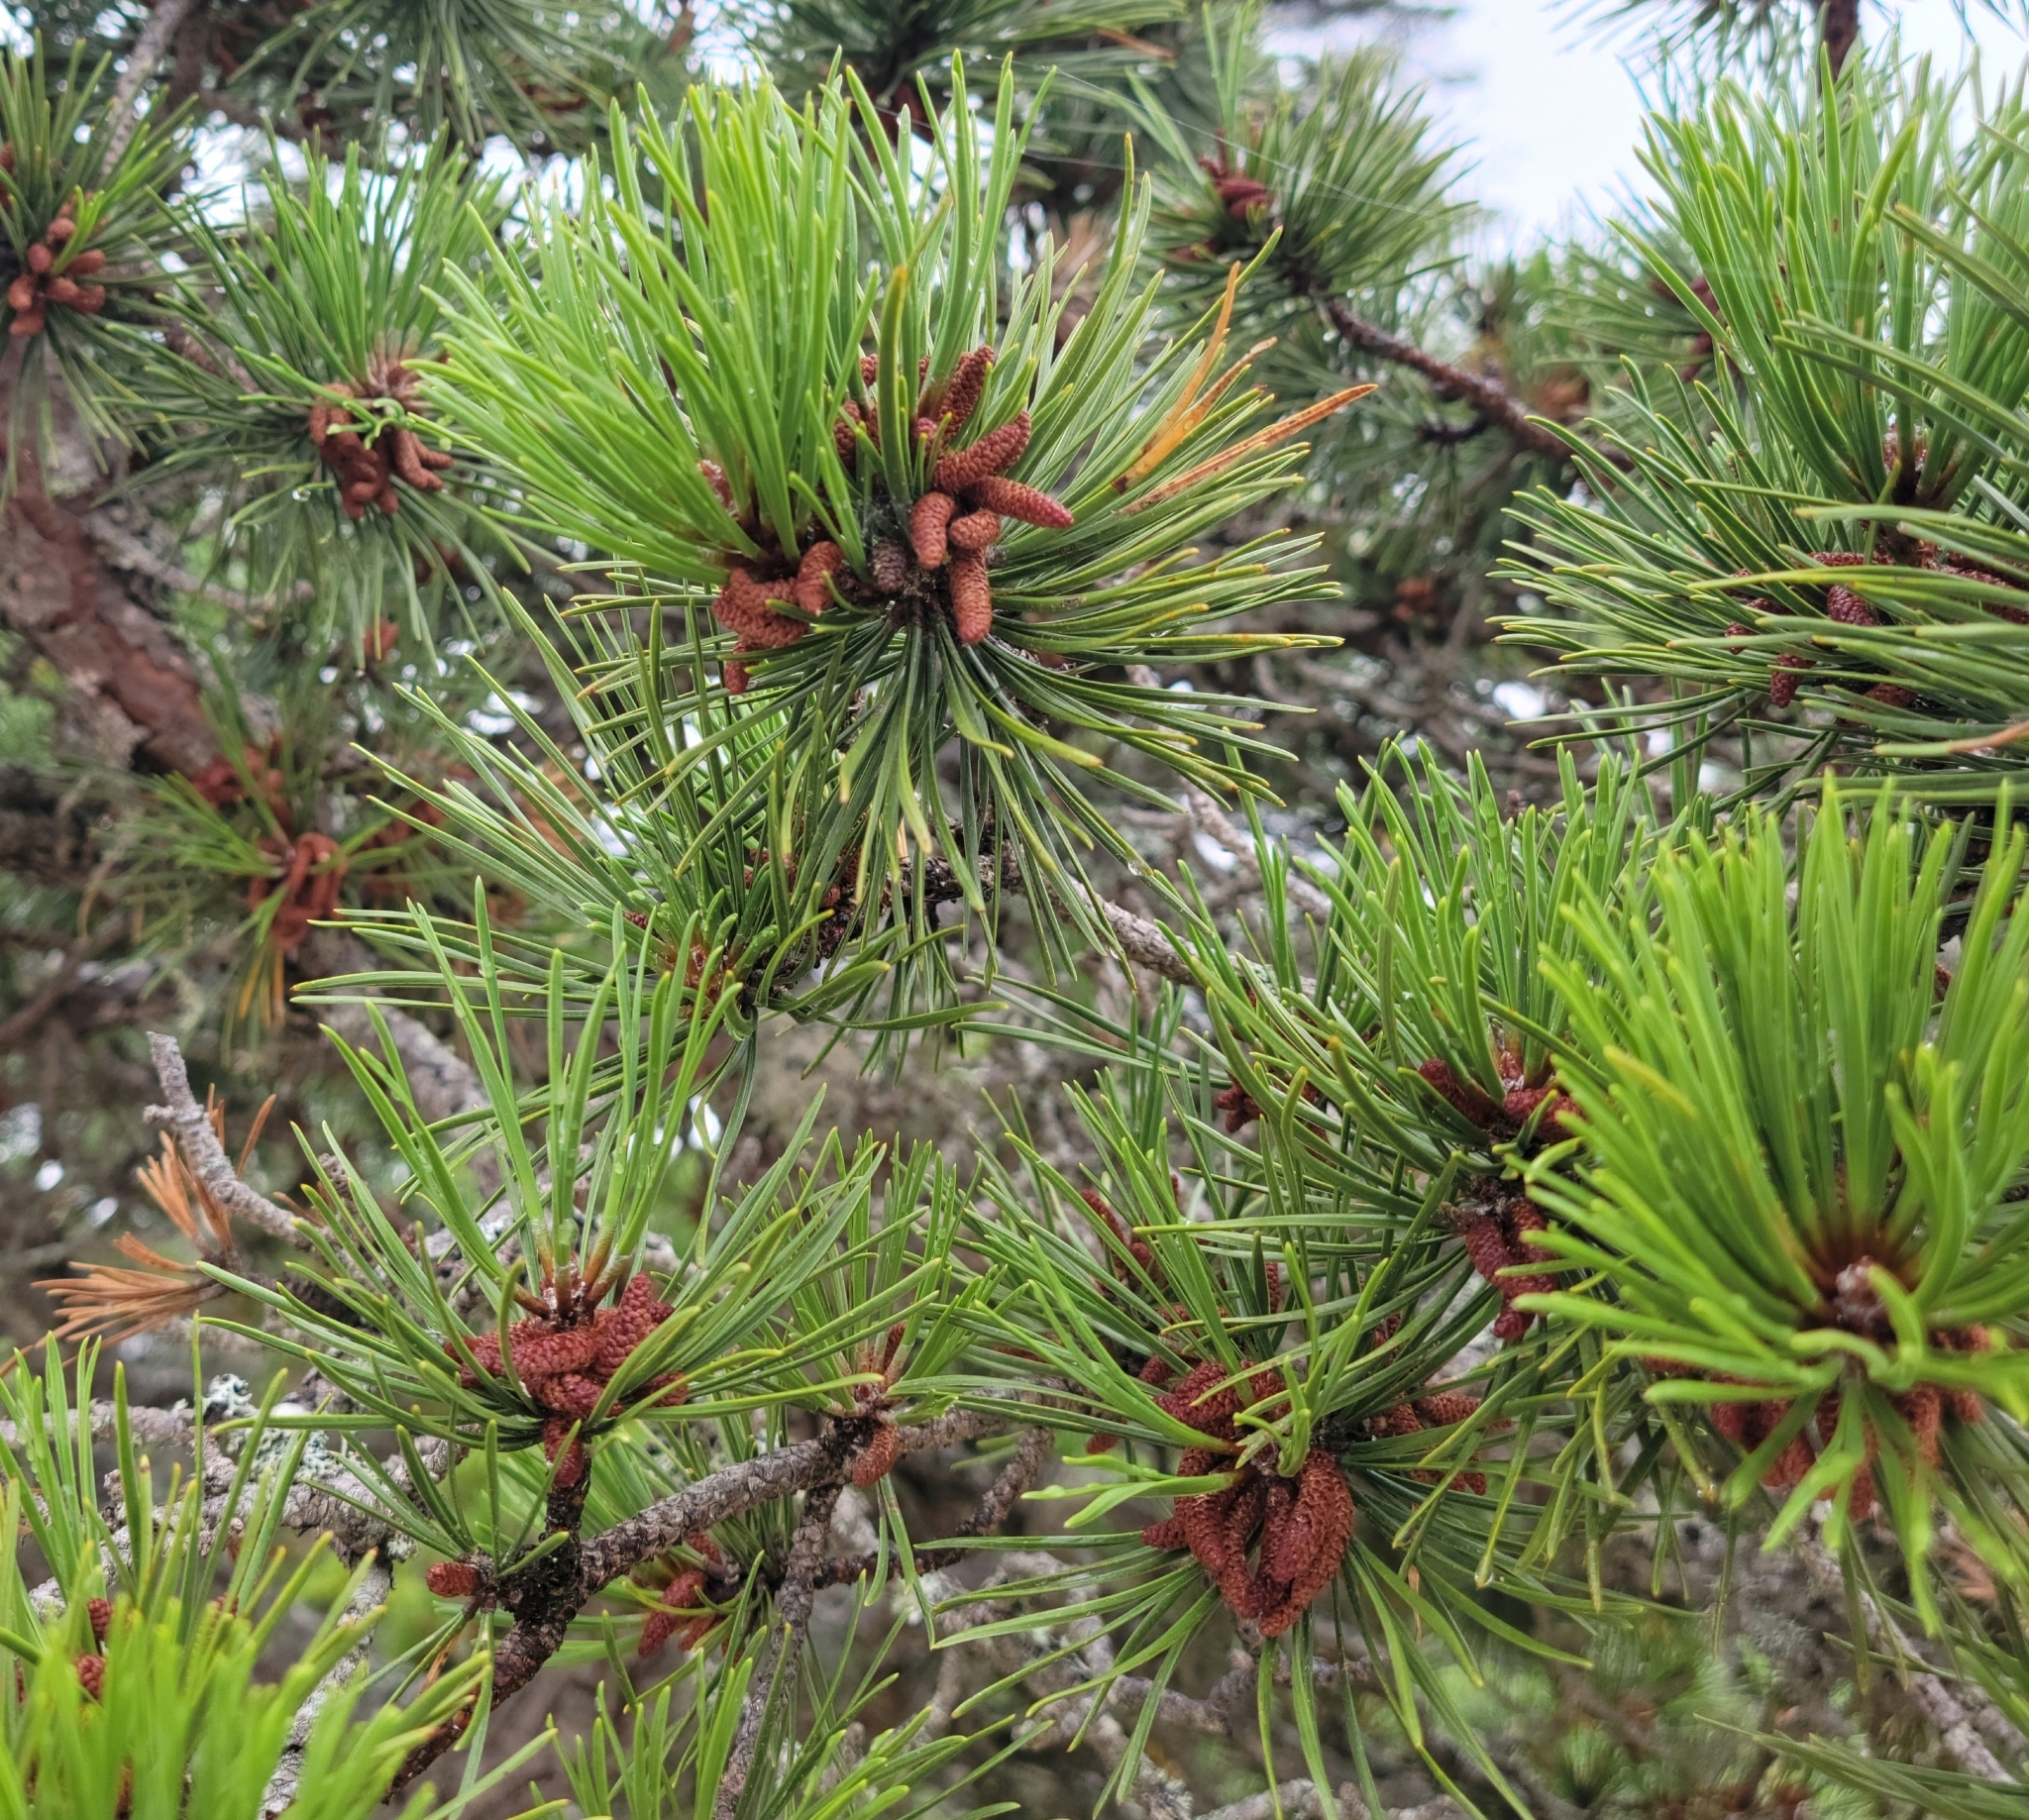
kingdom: Plantae
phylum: Tracheophyta
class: Pinopsida
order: Pinales
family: Pinaceae
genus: Pinus
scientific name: Pinus rigida
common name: Pitch pine
